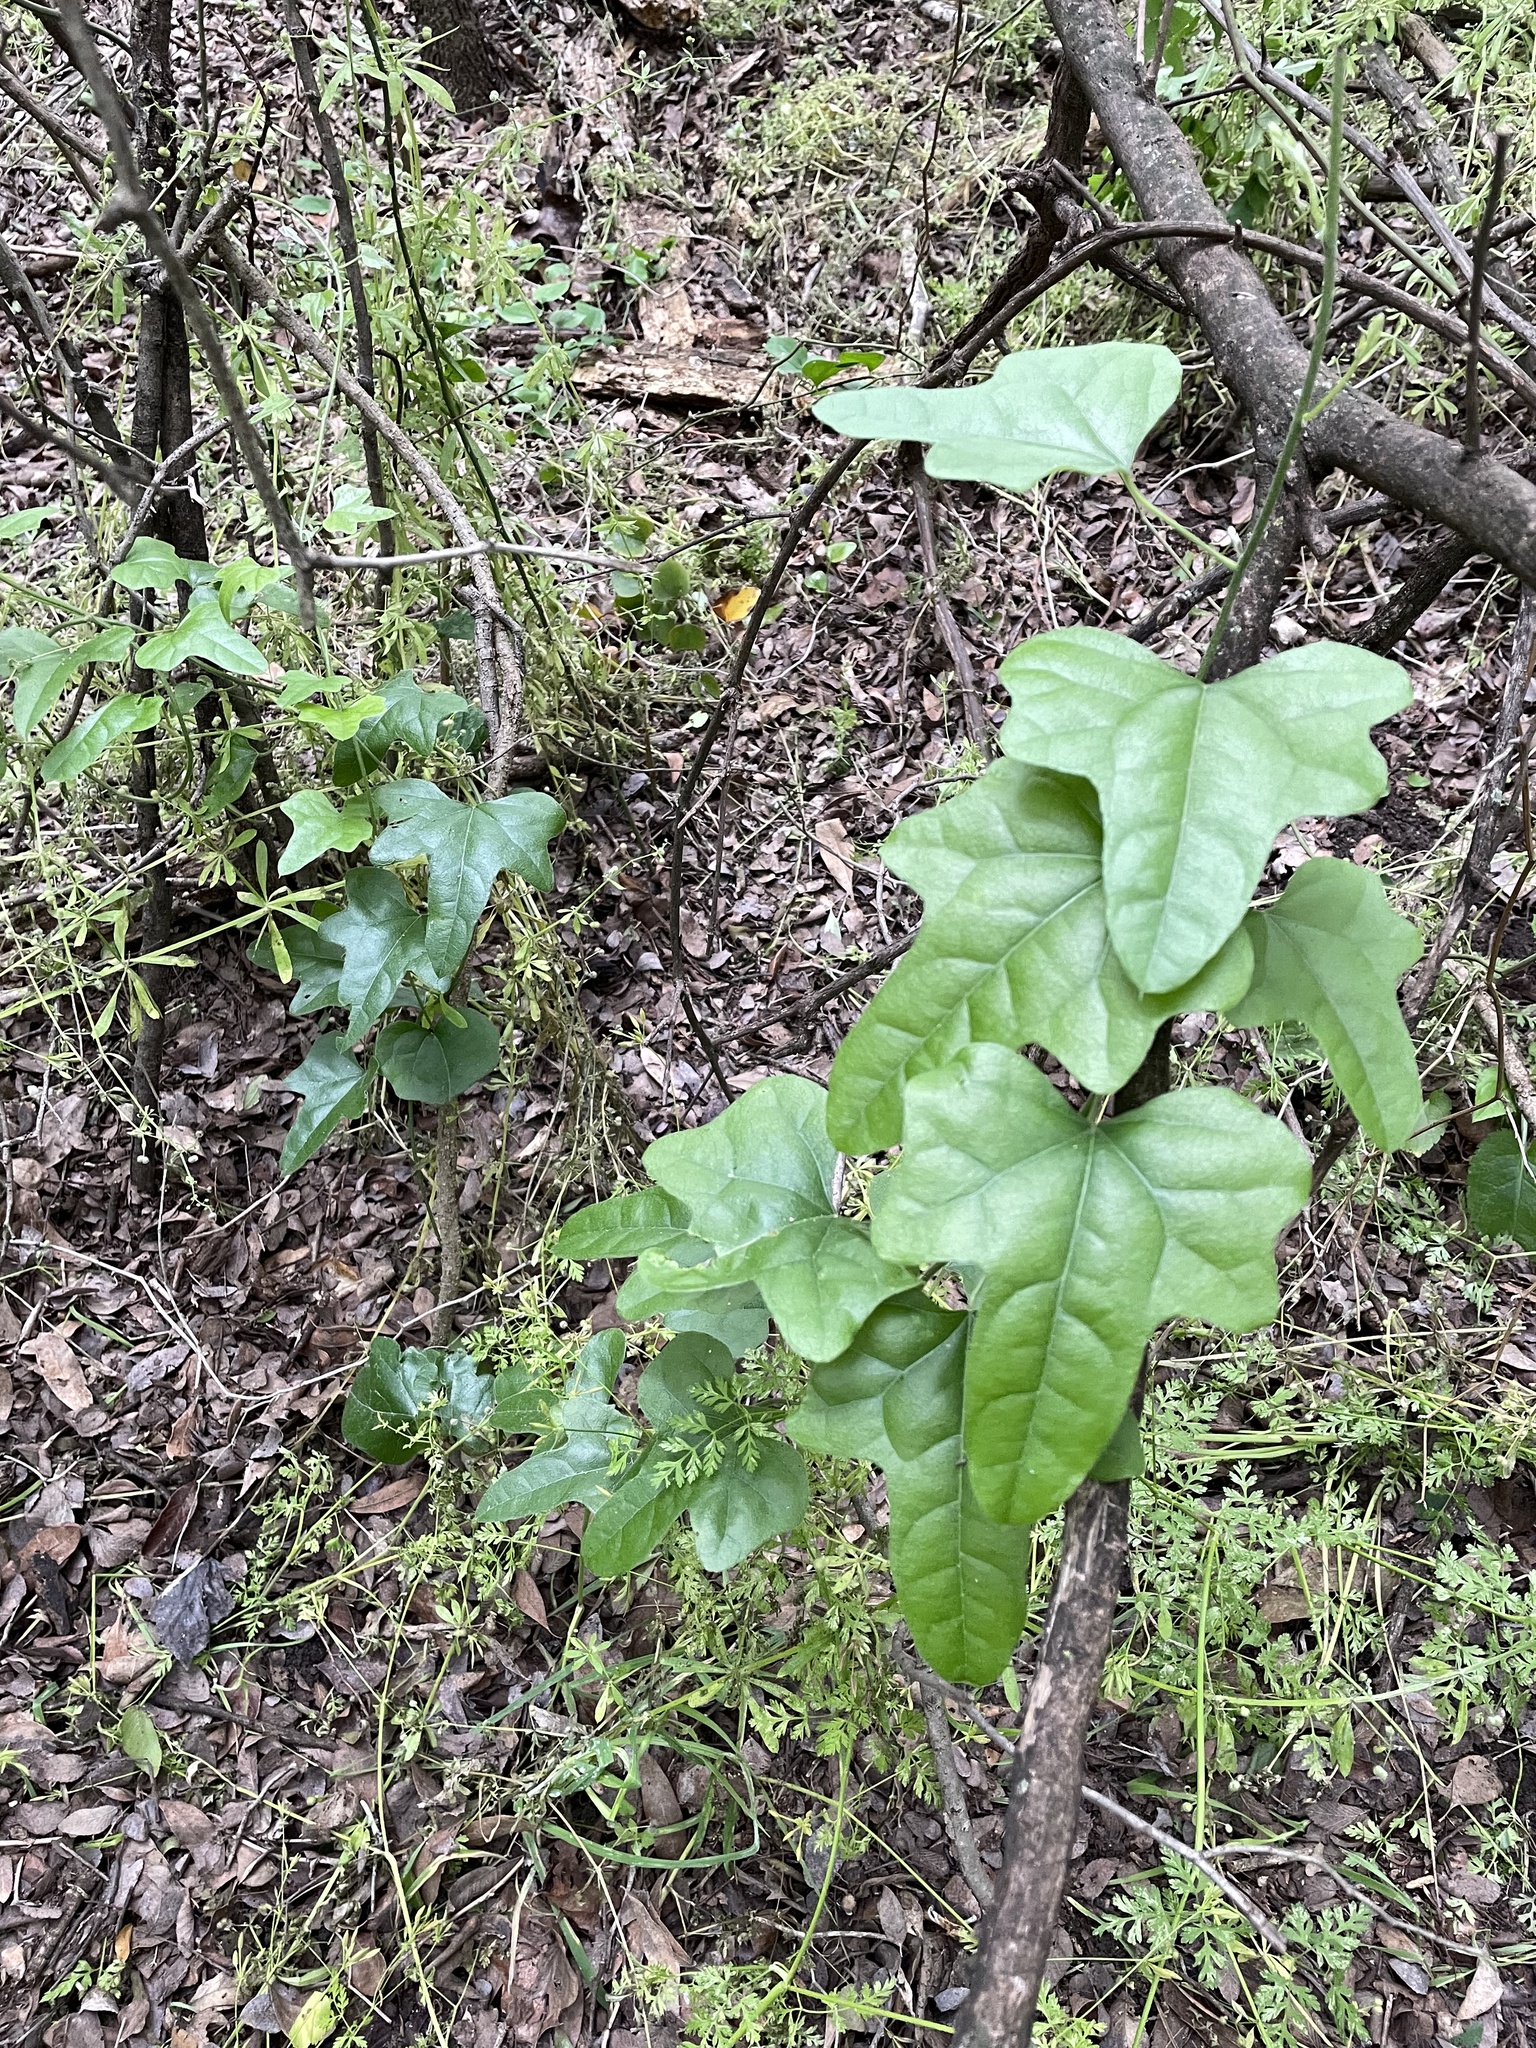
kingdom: Plantae
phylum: Tracheophyta
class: Magnoliopsida
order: Ranunculales
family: Menispermaceae
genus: Cocculus
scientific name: Cocculus carolinus
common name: Carolina moonseed
